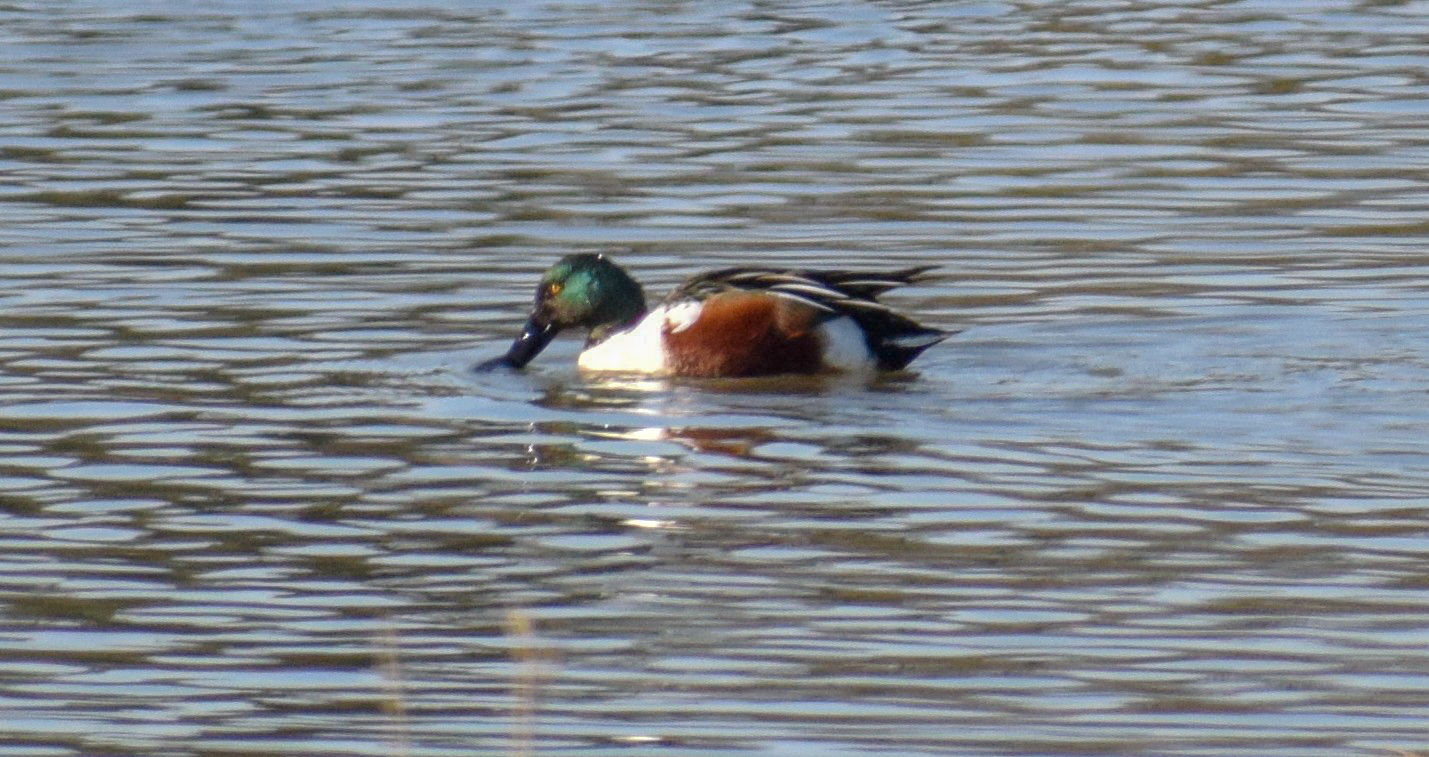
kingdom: Animalia
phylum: Chordata
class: Aves
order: Anseriformes
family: Anatidae
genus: Spatula
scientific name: Spatula clypeata
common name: Northern shoveler
